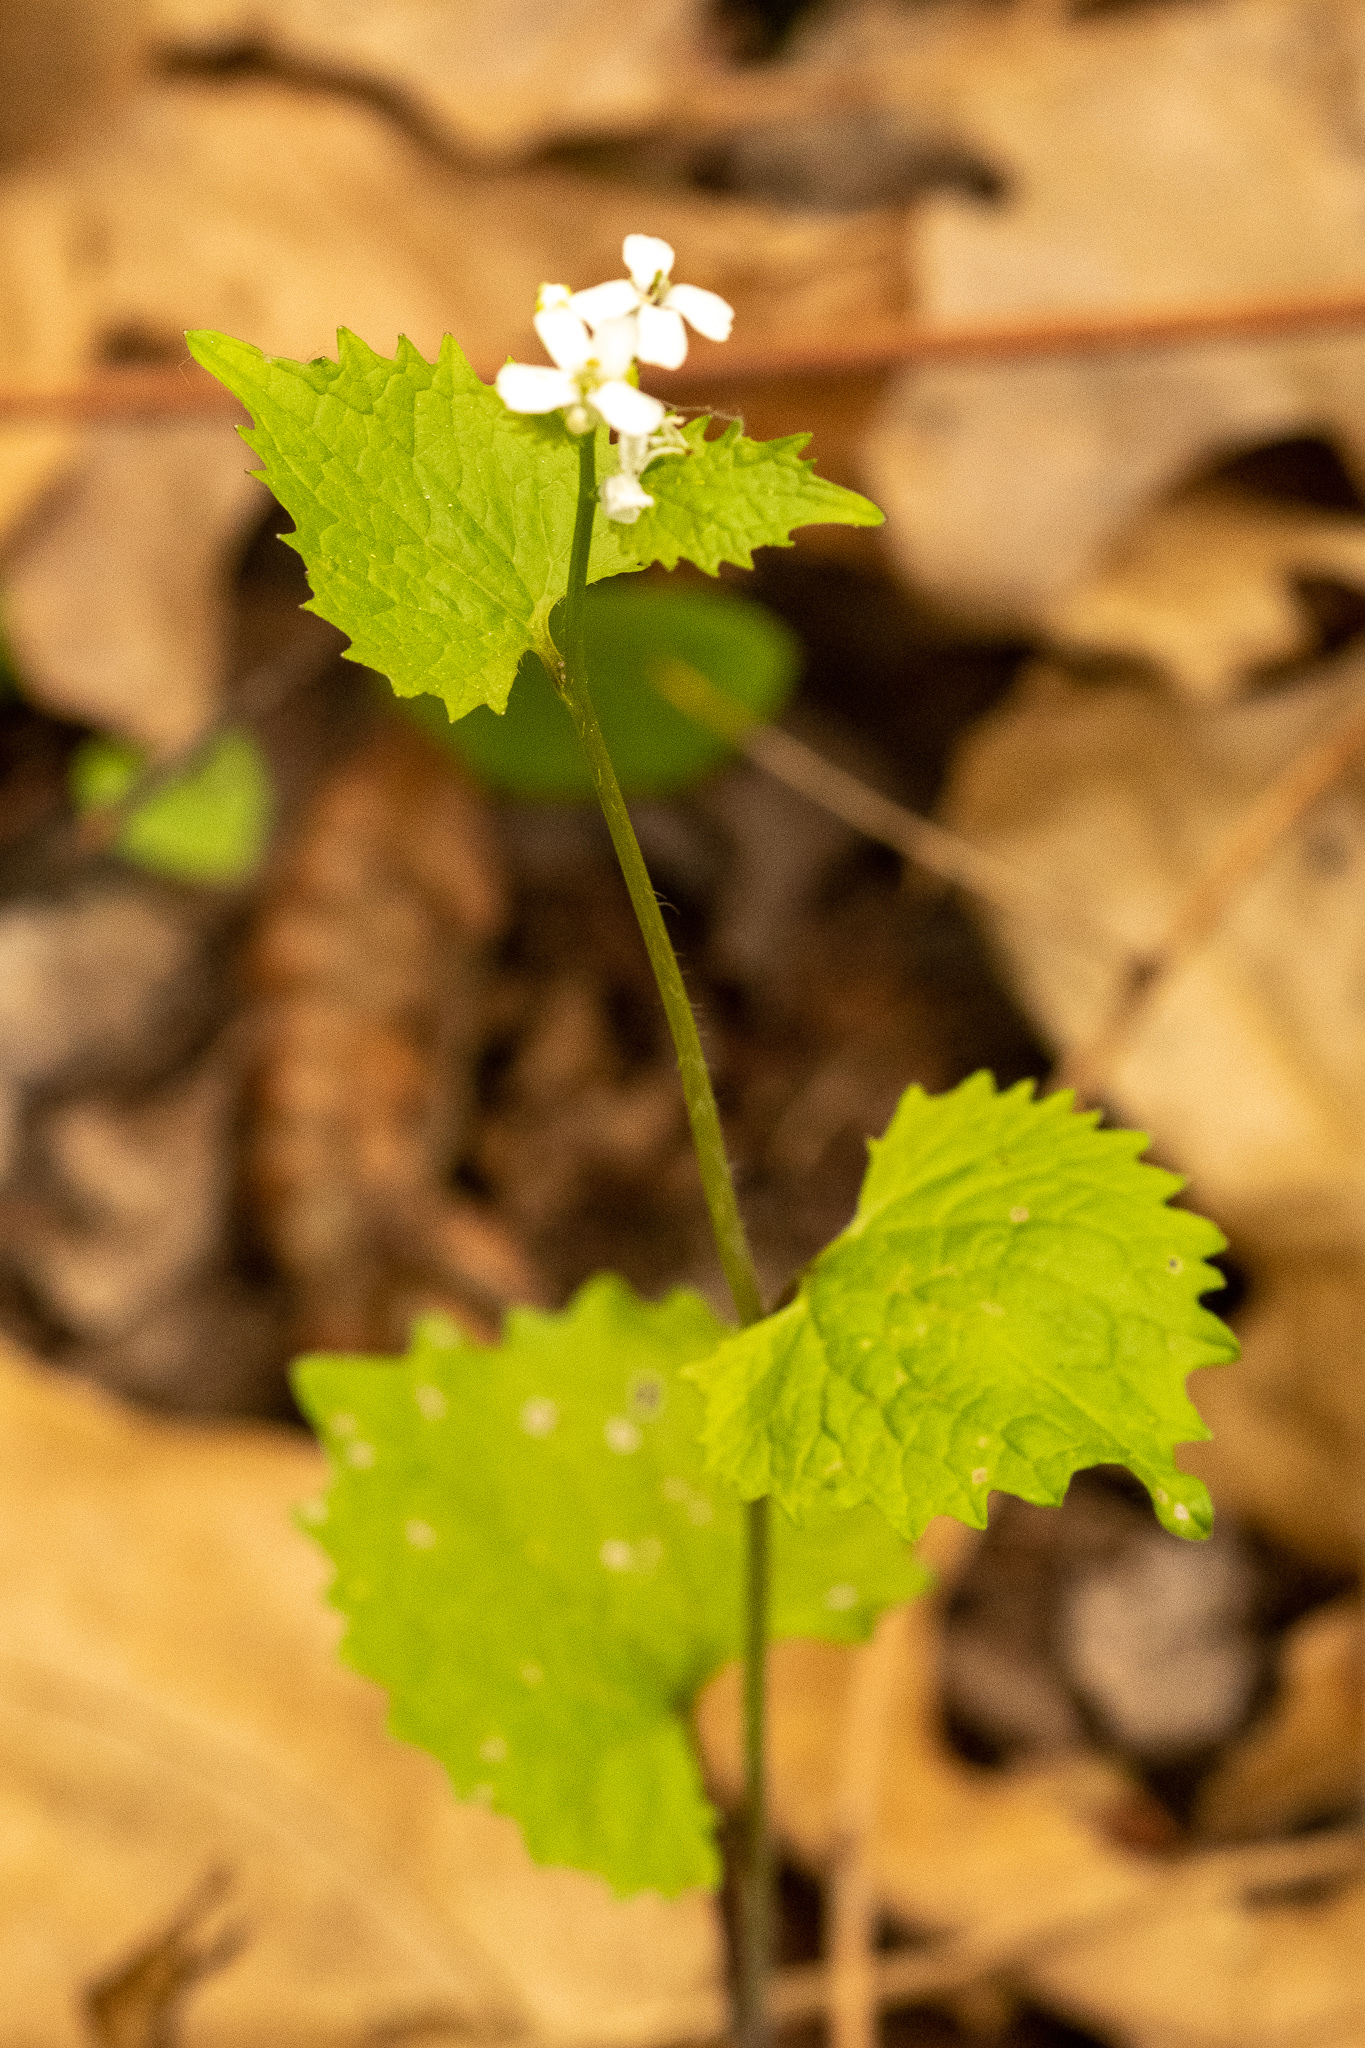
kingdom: Plantae
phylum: Tracheophyta
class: Magnoliopsida
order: Brassicales
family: Brassicaceae
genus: Alliaria
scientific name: Alliaria petiolata
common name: Garlic mustard
